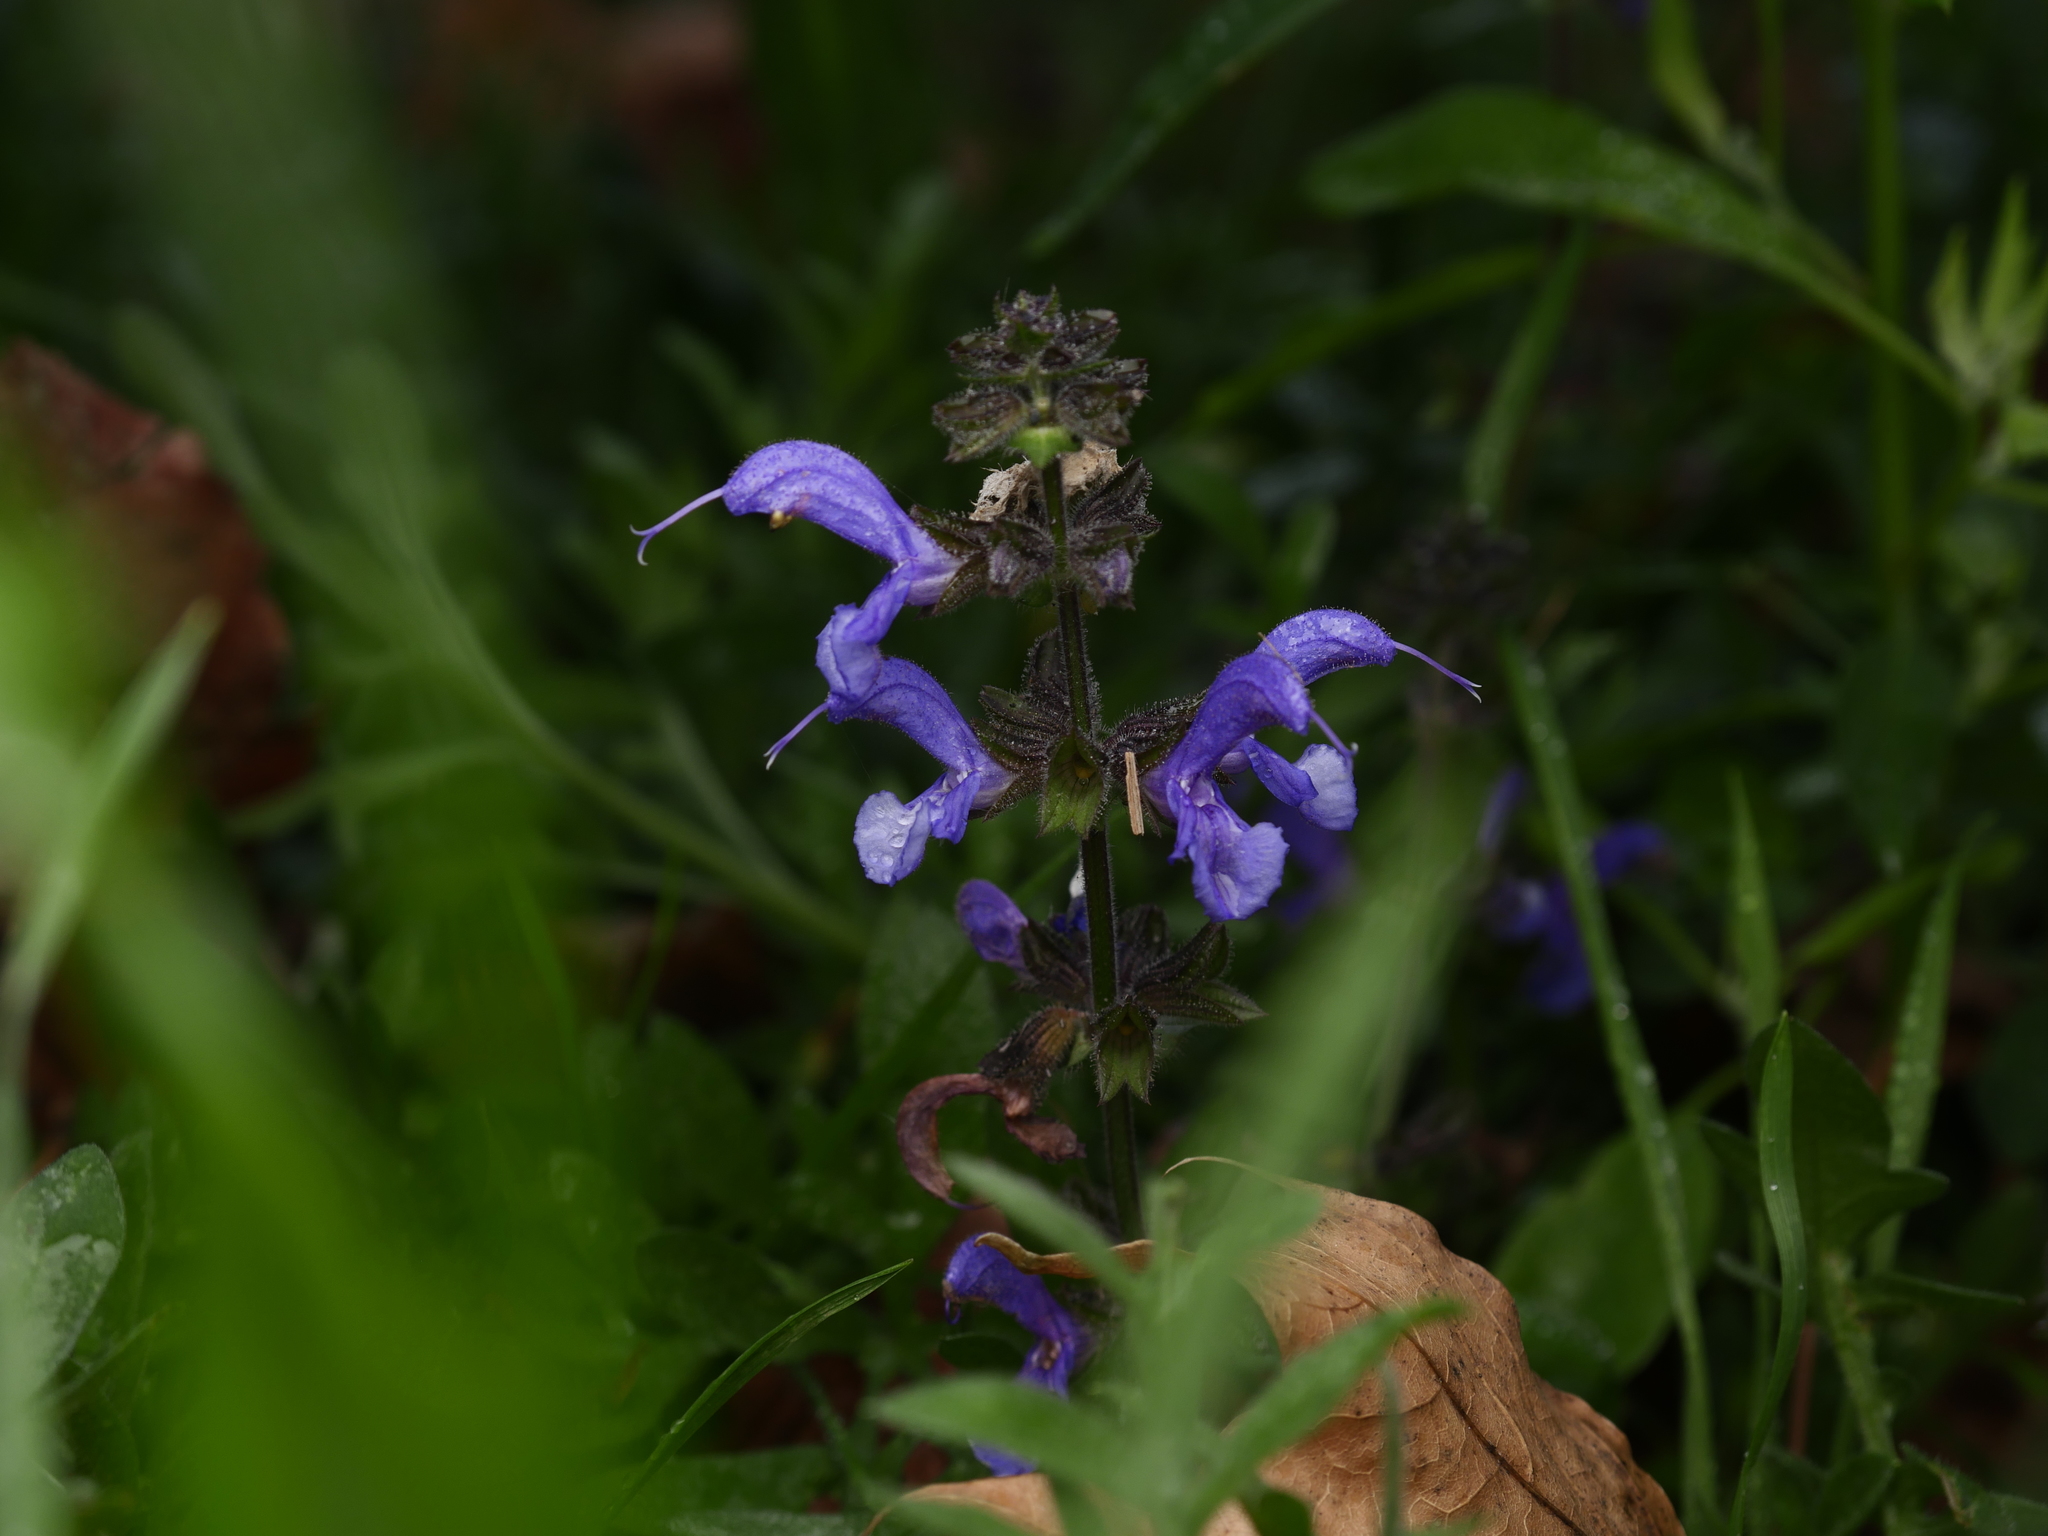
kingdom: Plantae
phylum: Tracheophyta
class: Magnoliopsida
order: Lamiales
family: Lamiaceae
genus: Salvia
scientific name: Salvia pratensis
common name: Meadow sage
